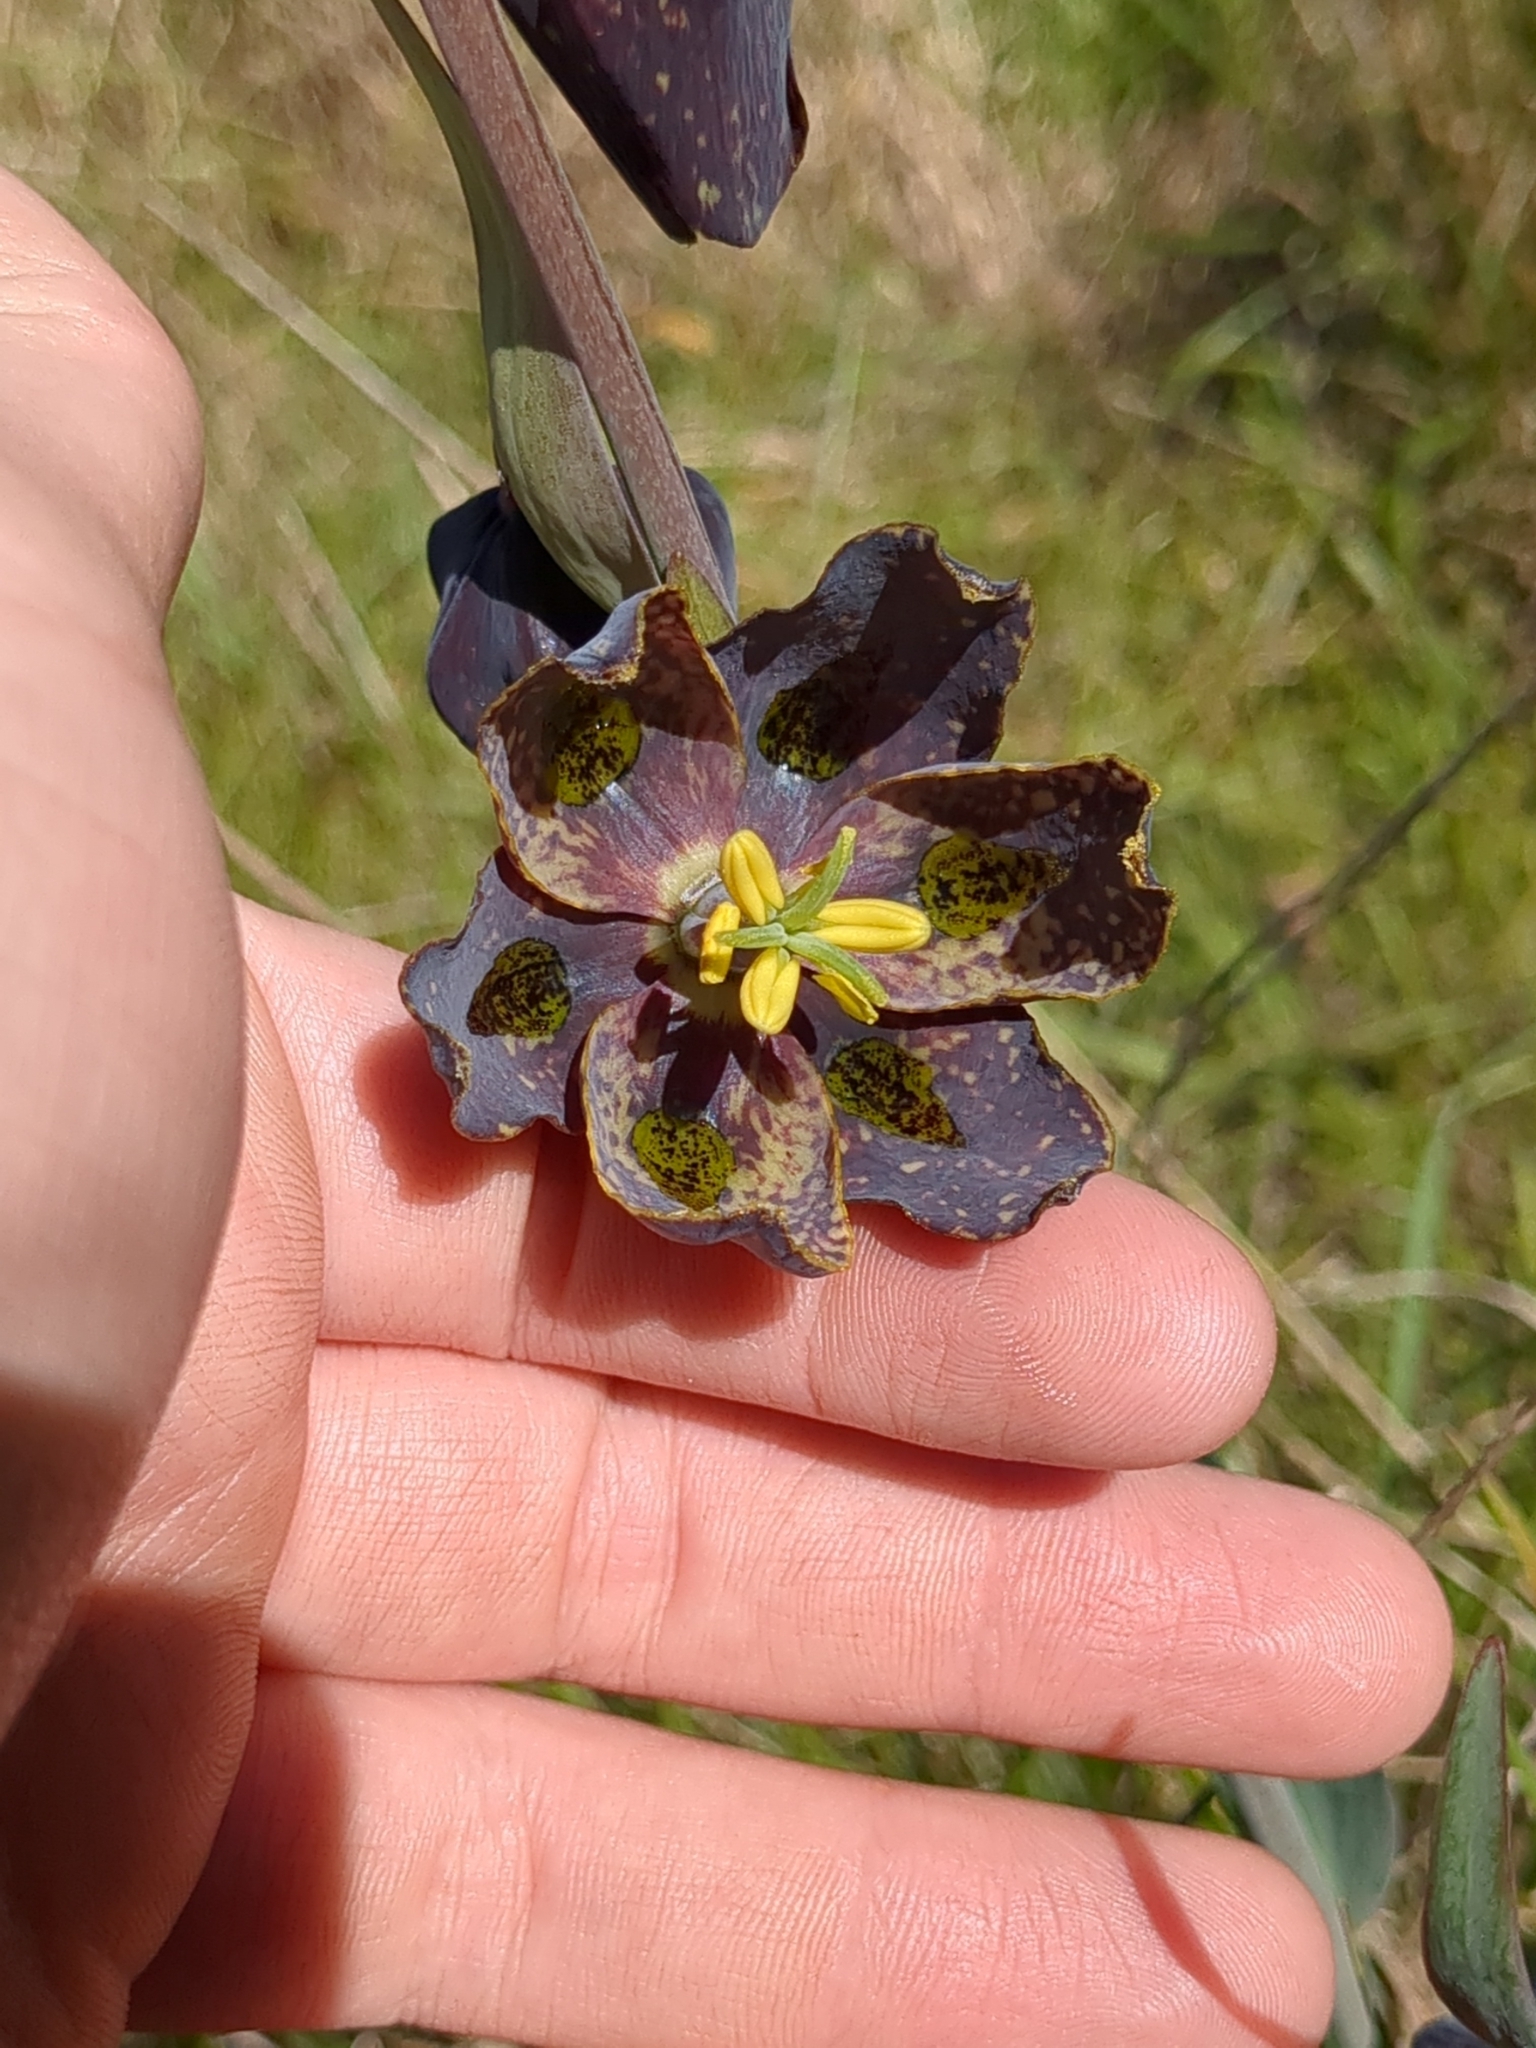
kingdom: Plantae
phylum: Tracheophyta
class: Liliopsida
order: Liliales
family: Liliaceae
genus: Fritillaria
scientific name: Fritillaria affinis
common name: Ojai fritillary
